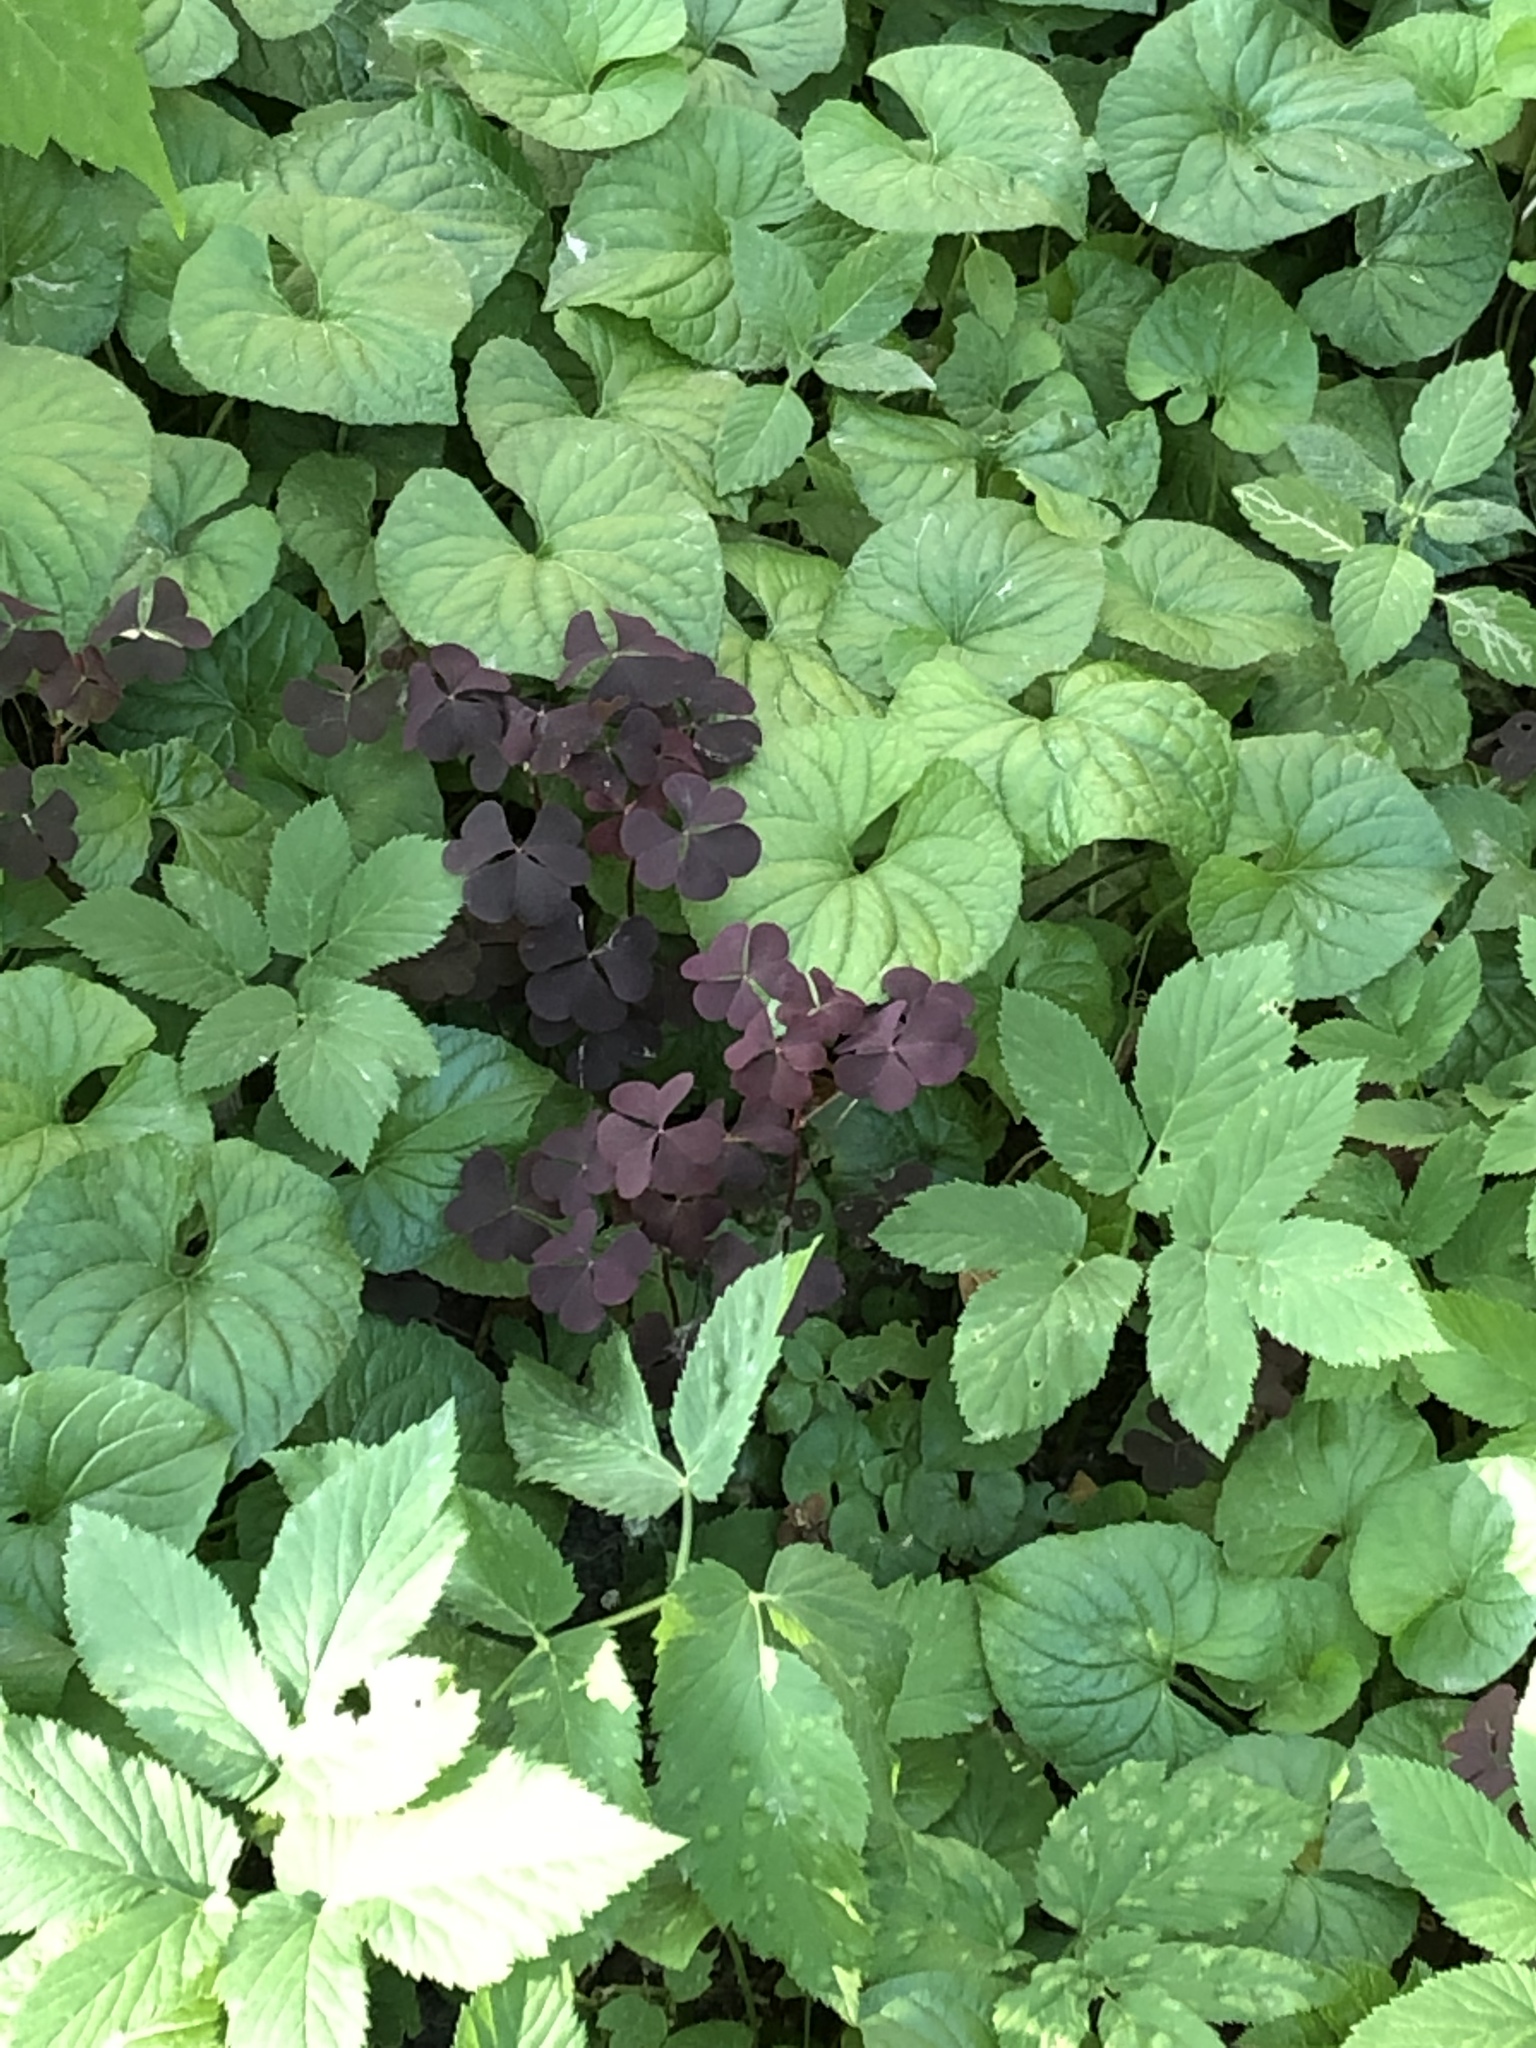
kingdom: Plantae
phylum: Tracheophyta
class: Magnoliopsida
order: Oxalidales
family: Oxalidaceae
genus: Oxalis
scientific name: Oxalis stricta
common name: Upright yellow-sorrel
